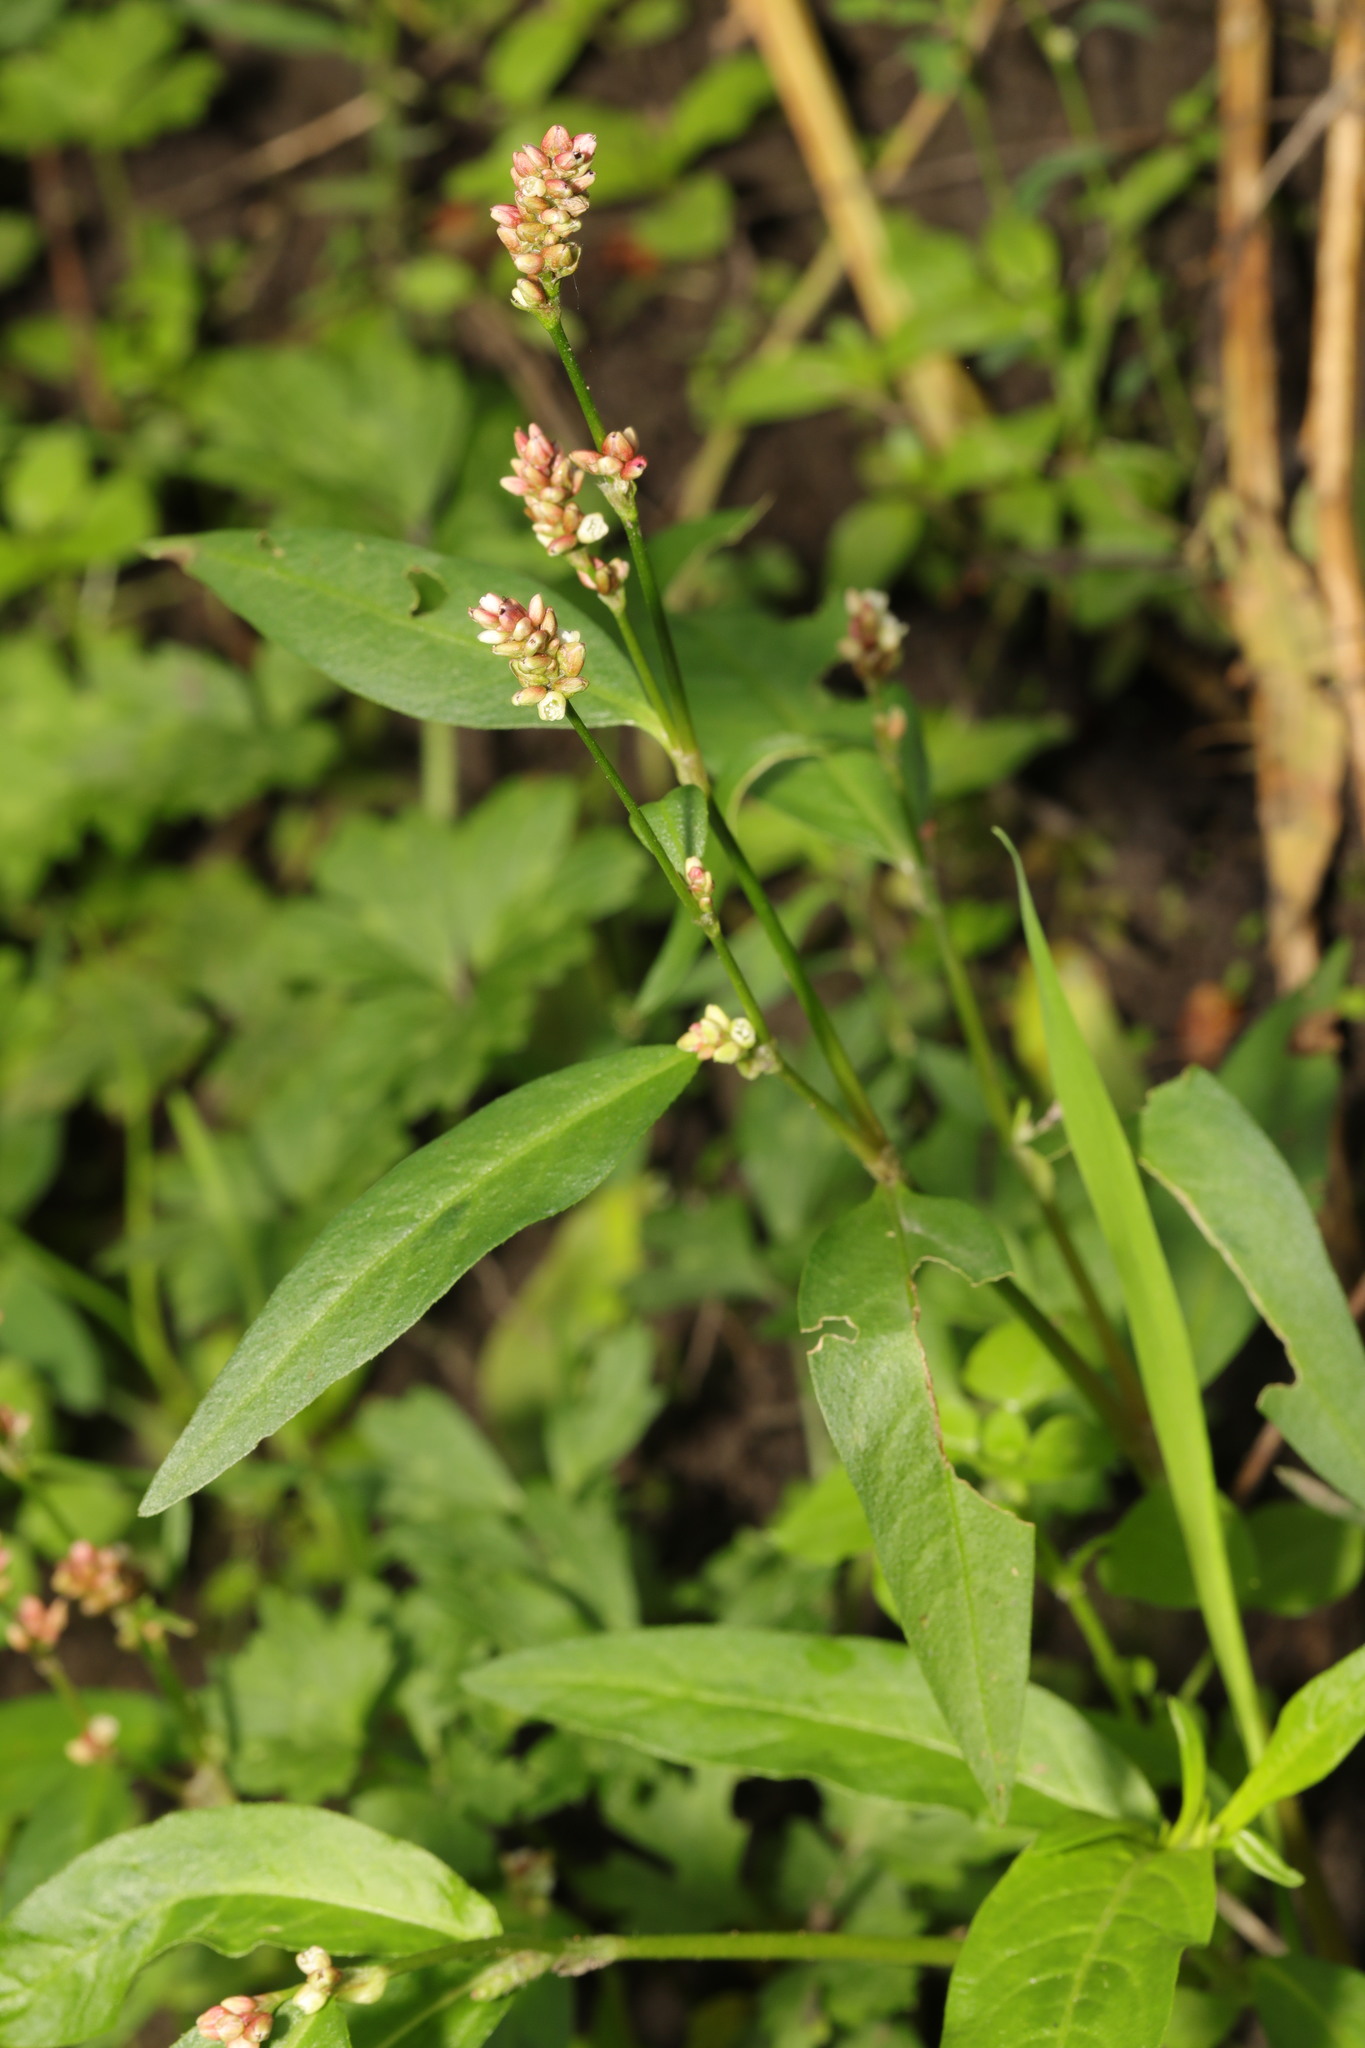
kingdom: Plantae
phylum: Tracheophyta
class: Magnoliopsida
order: Caryophyllales
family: Polygonaceae
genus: Persicaria
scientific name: Persicaria maculosa
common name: Redshank
